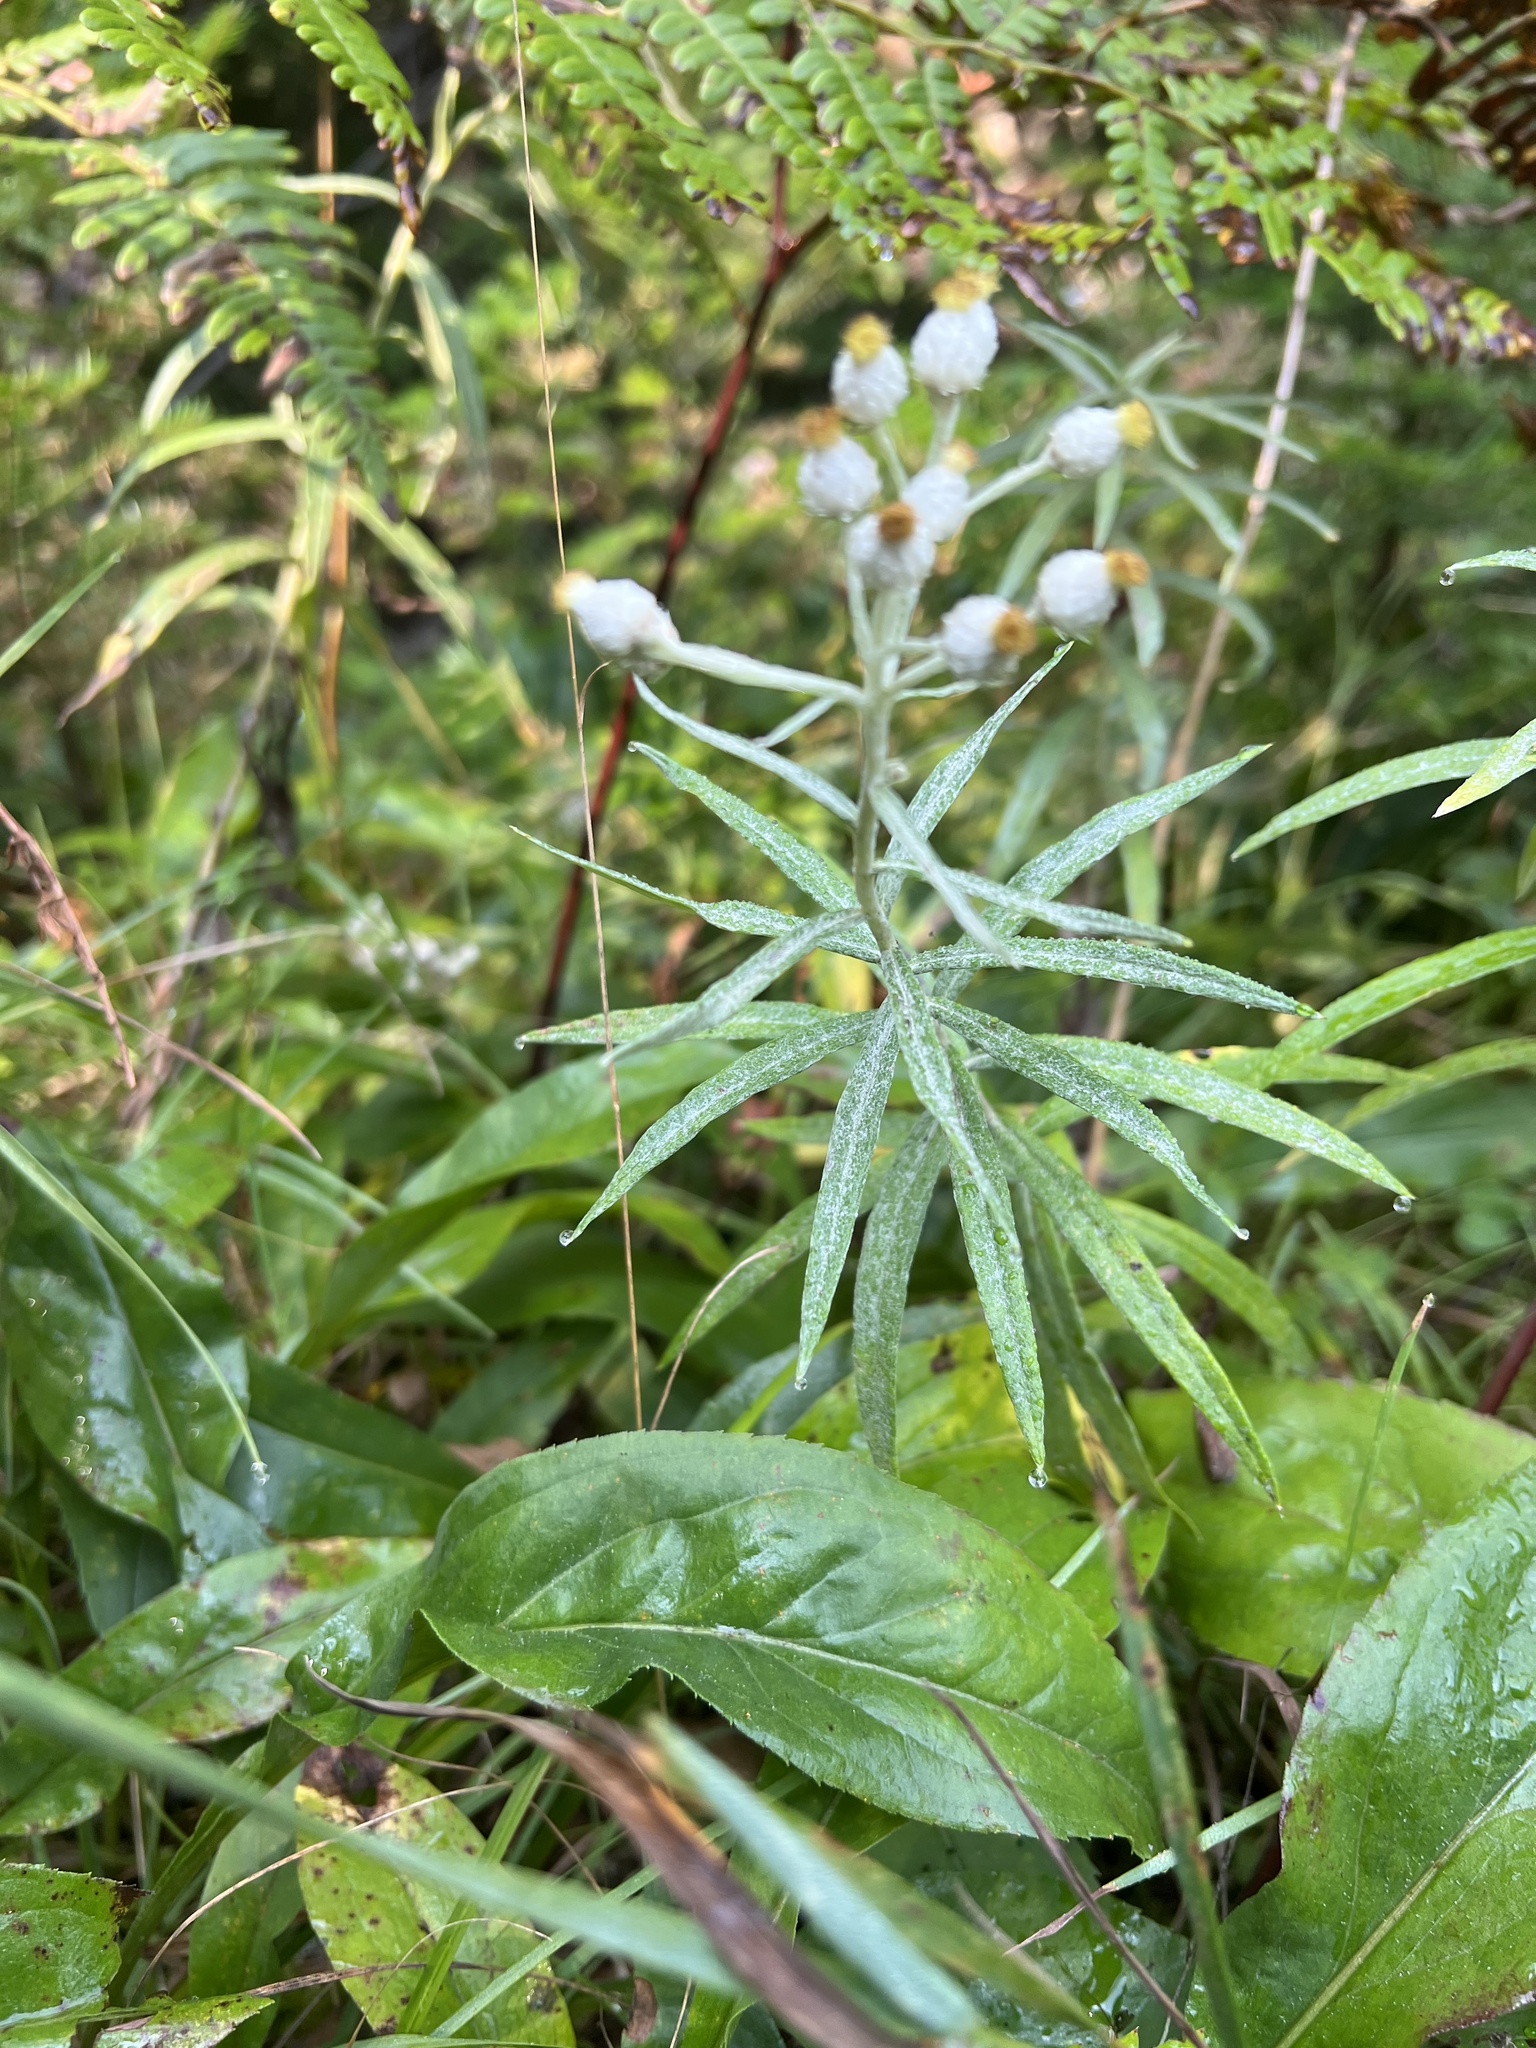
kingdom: Plantae
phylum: Tracheophyta
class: Magnoliopsida
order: Asterales
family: Asteraceae
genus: Anaphalis
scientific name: Anaphalis margaritacea
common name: Pearly everlasting
